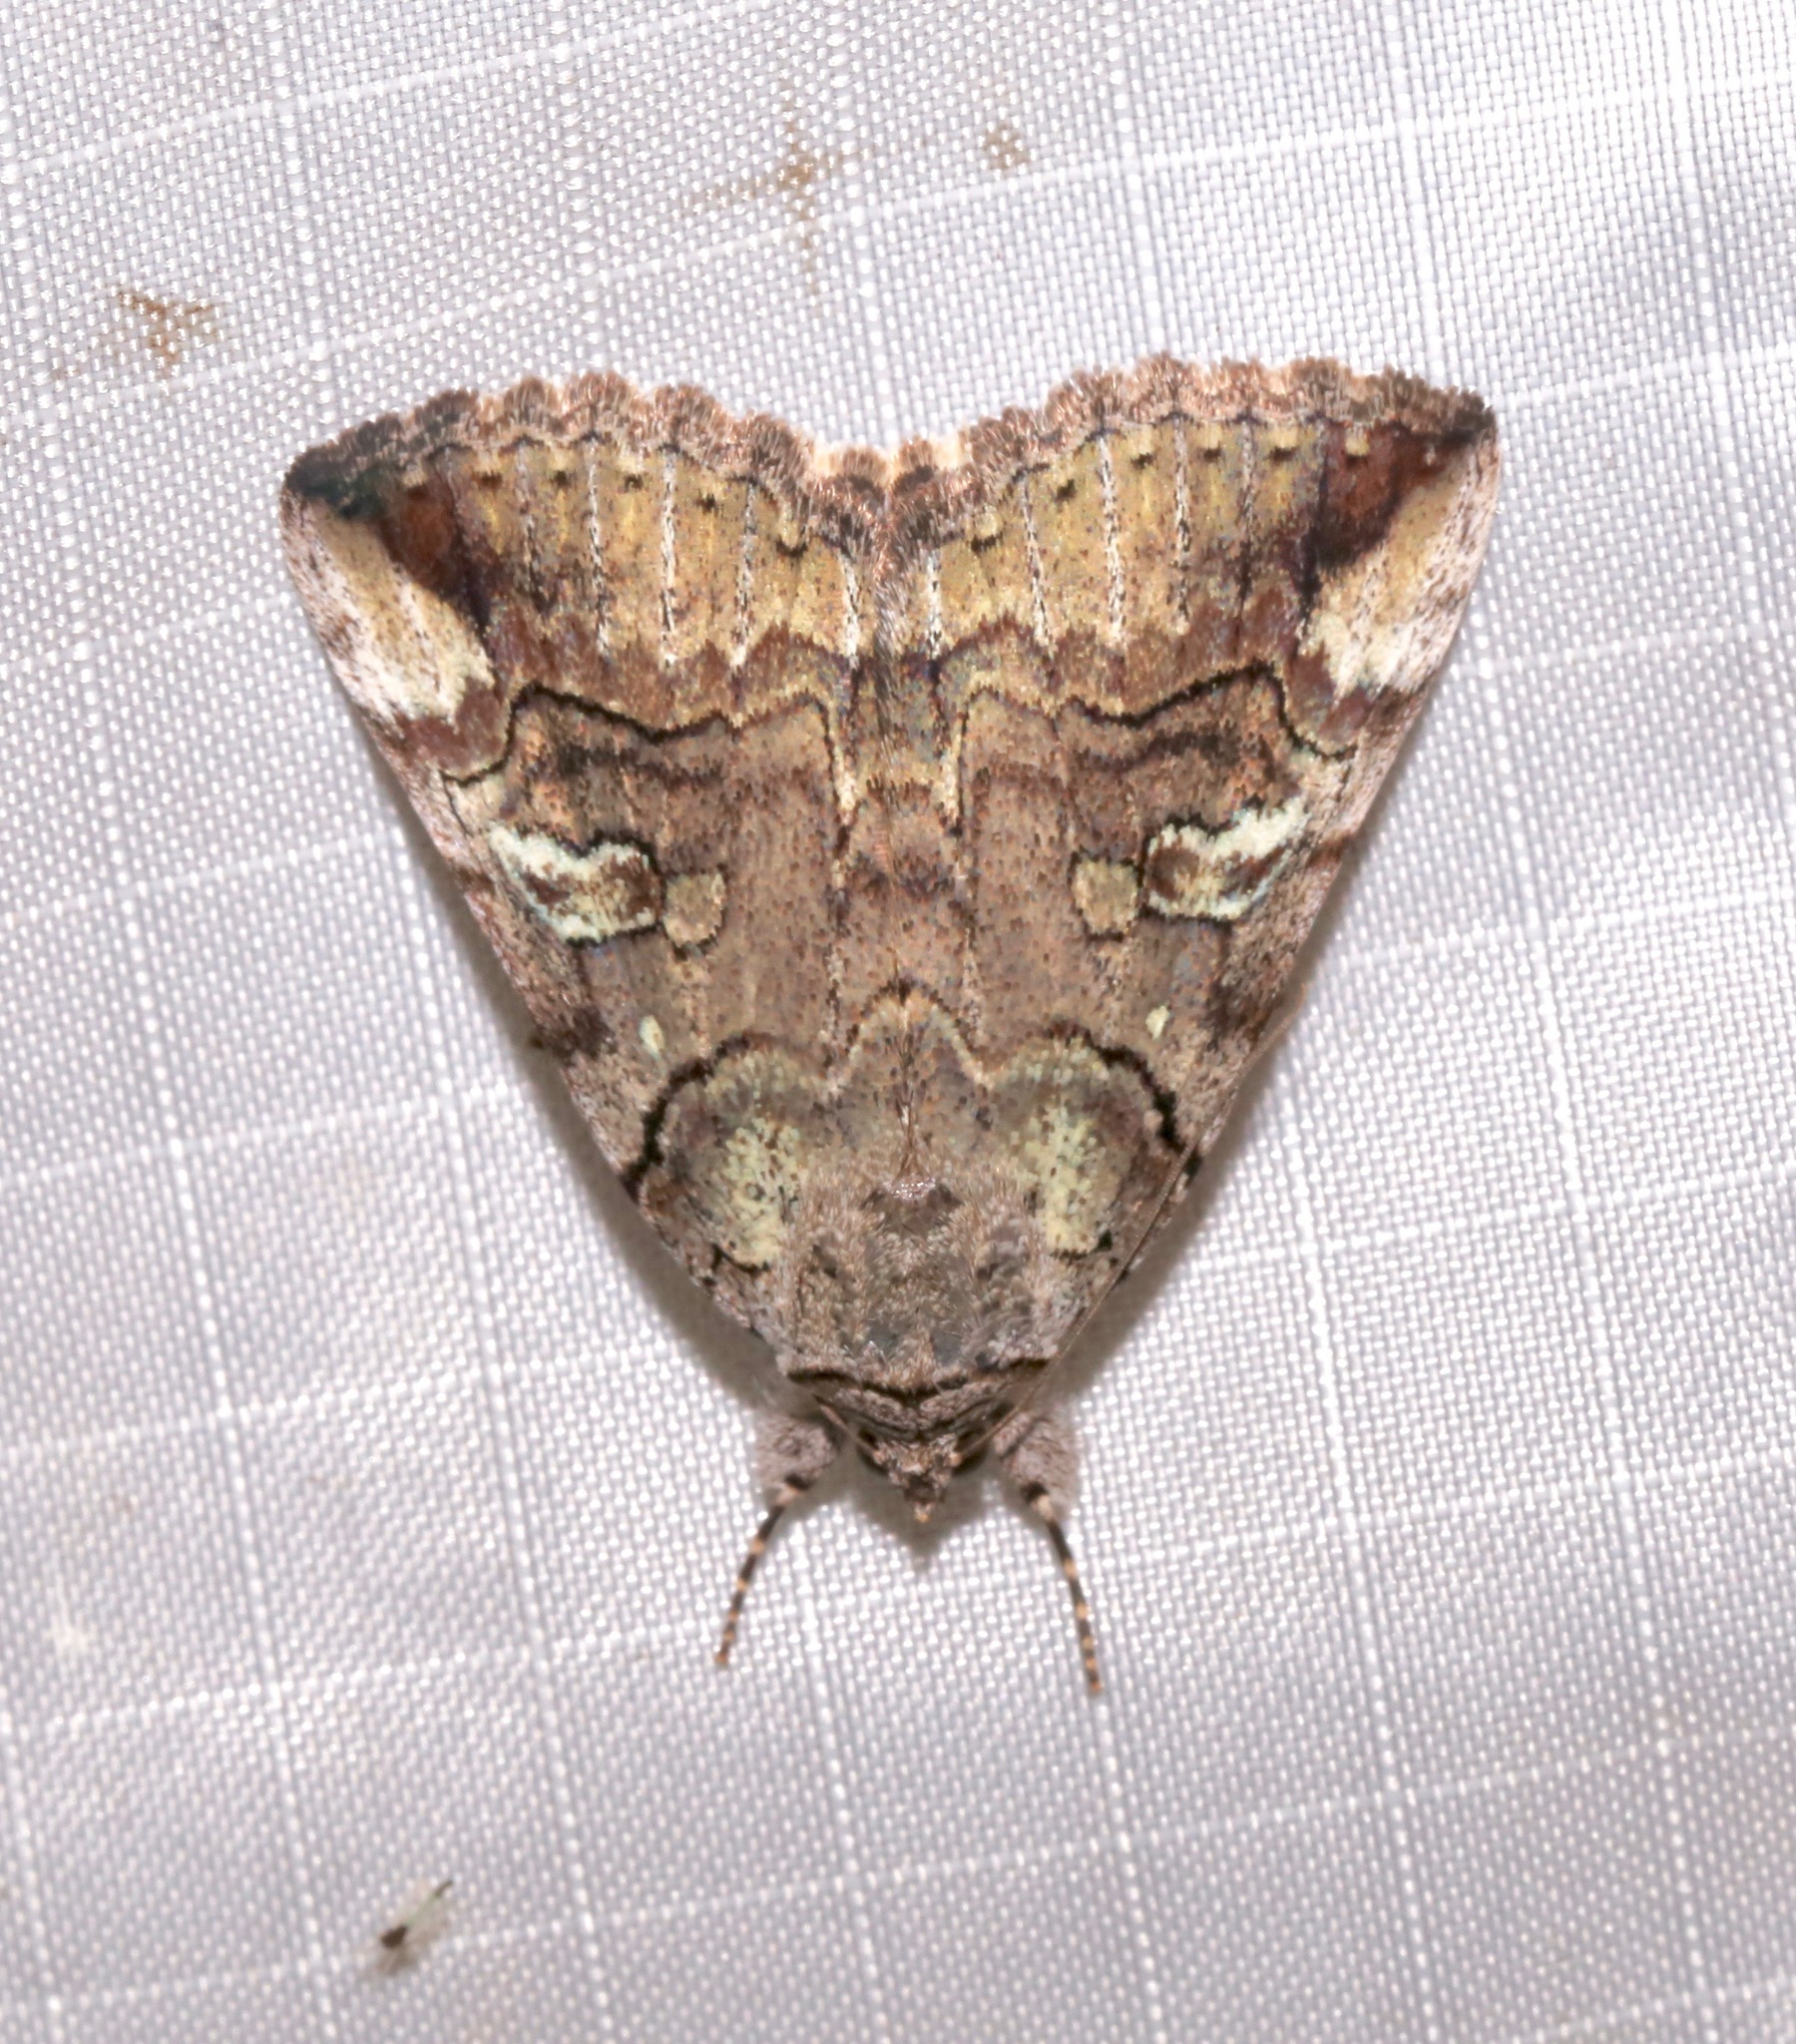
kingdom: Animalia
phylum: Arthropoda
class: Insecta
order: Lepidoptera
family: Erebidae
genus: Catocala
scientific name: Catocala similis
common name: Similar underwing
